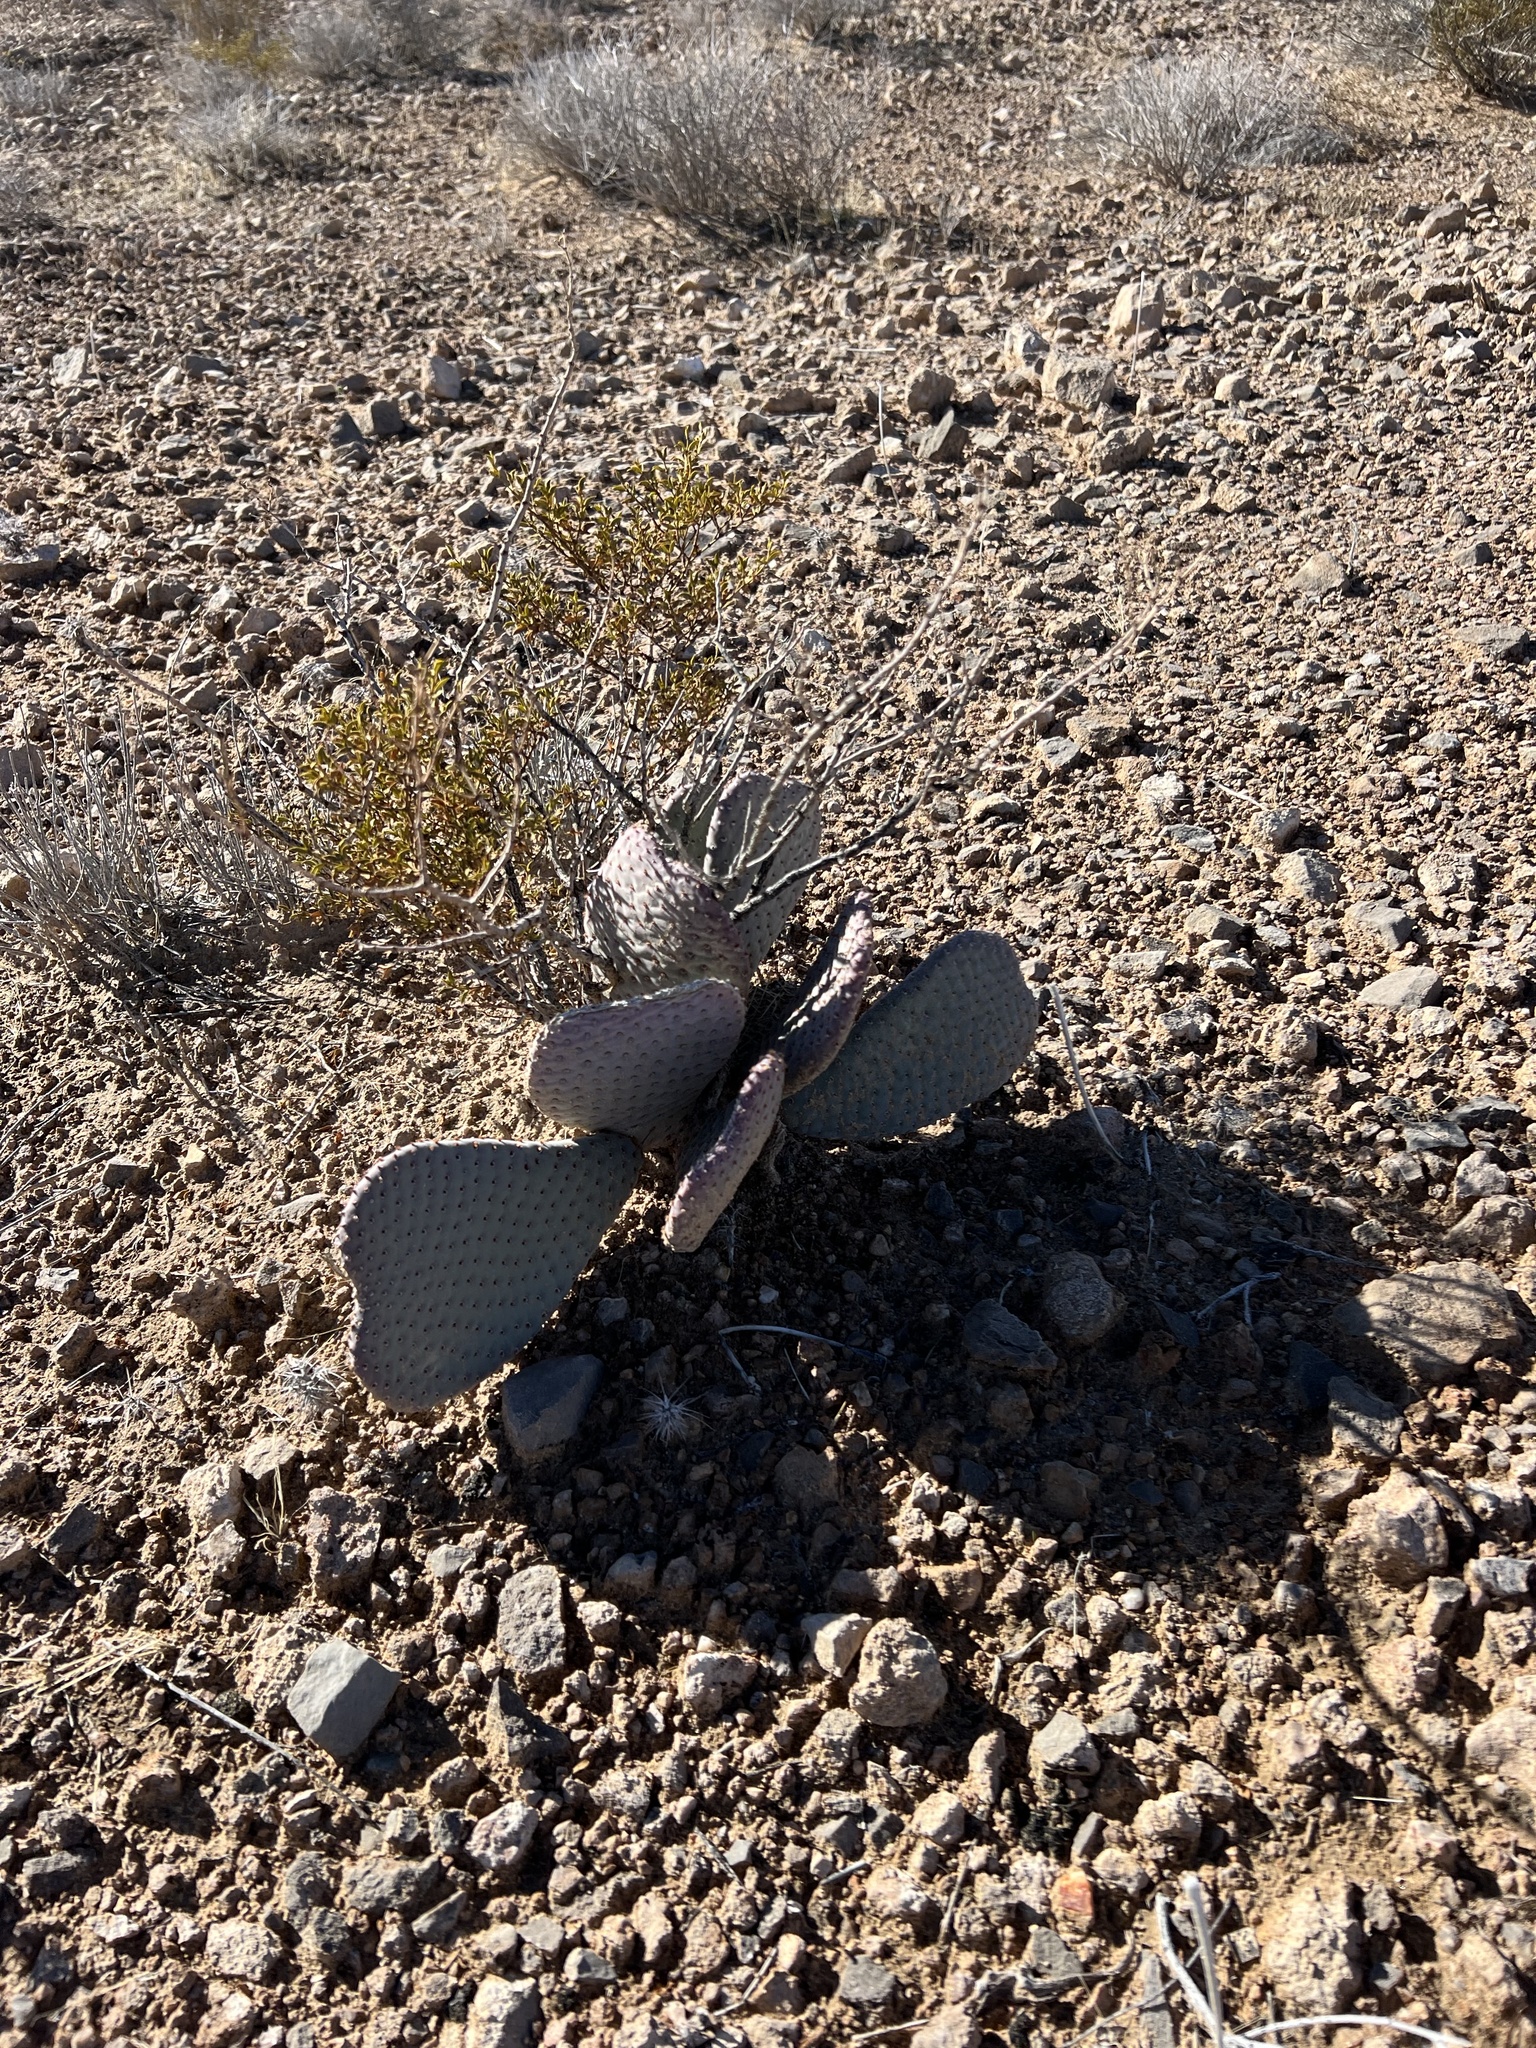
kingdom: Plantae
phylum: Tracheophyta
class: Magnoliopsida
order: Caryophyllales
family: Cactaceae
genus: Opuntia
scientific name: Opuntia basilaris
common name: Beavertail prickly-pear
